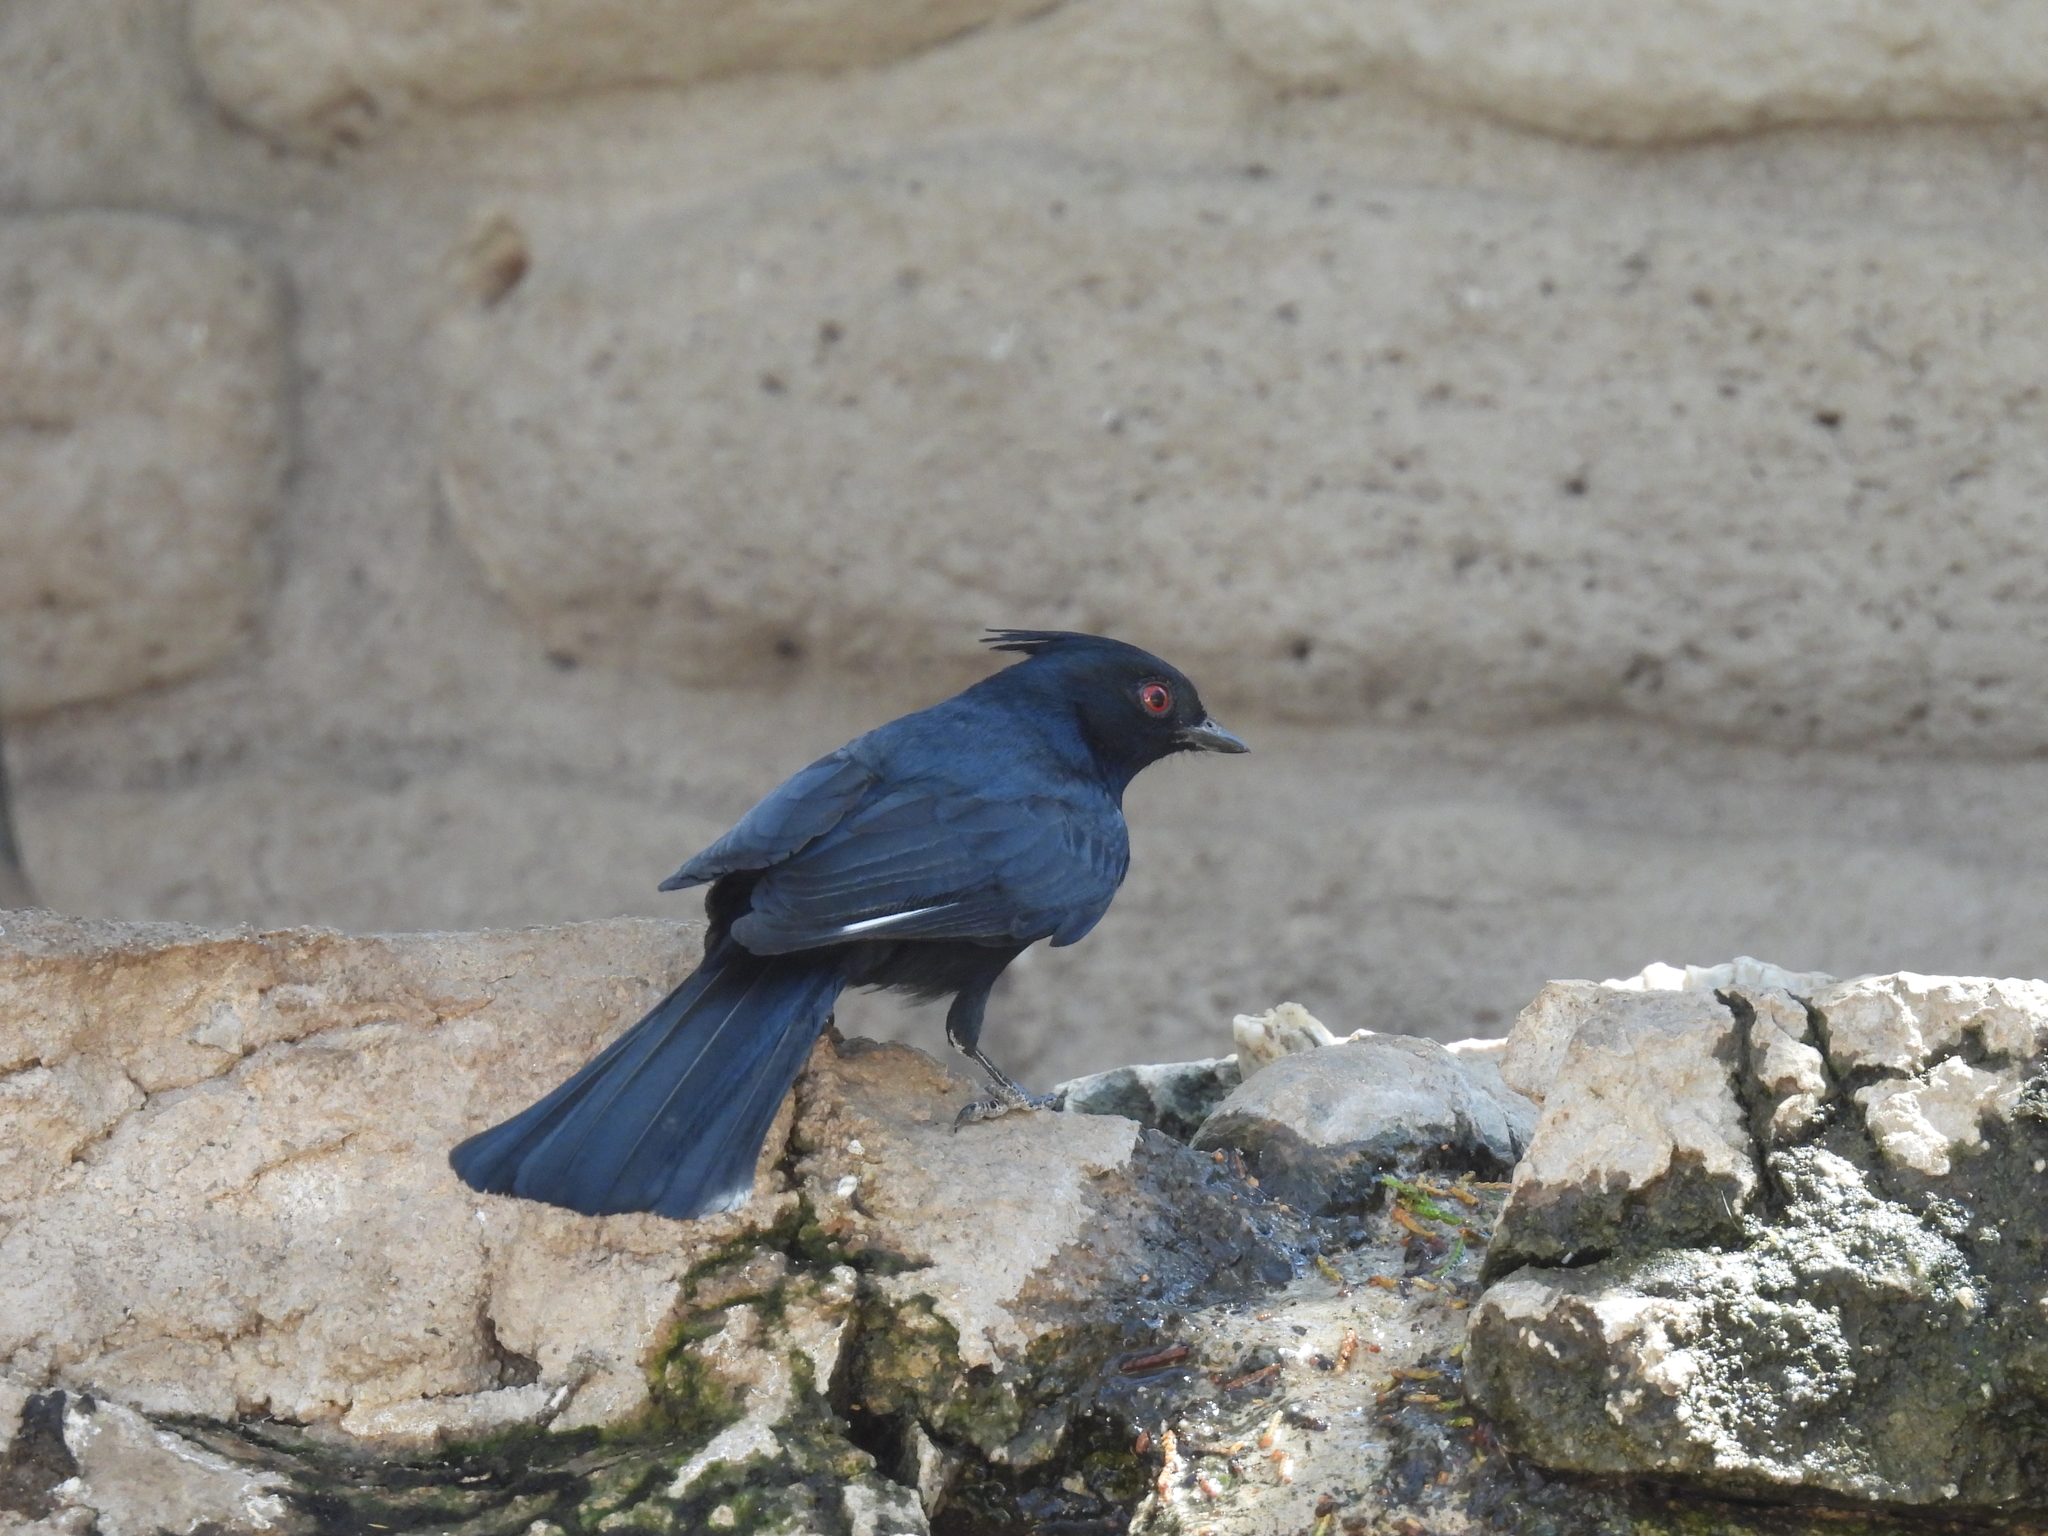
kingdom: Animalia
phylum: Chordata
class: Aves
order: Passeriformes
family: Ptilogonatidae
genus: Phainopepla
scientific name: Phainopepla nitens
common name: Phainopepla
